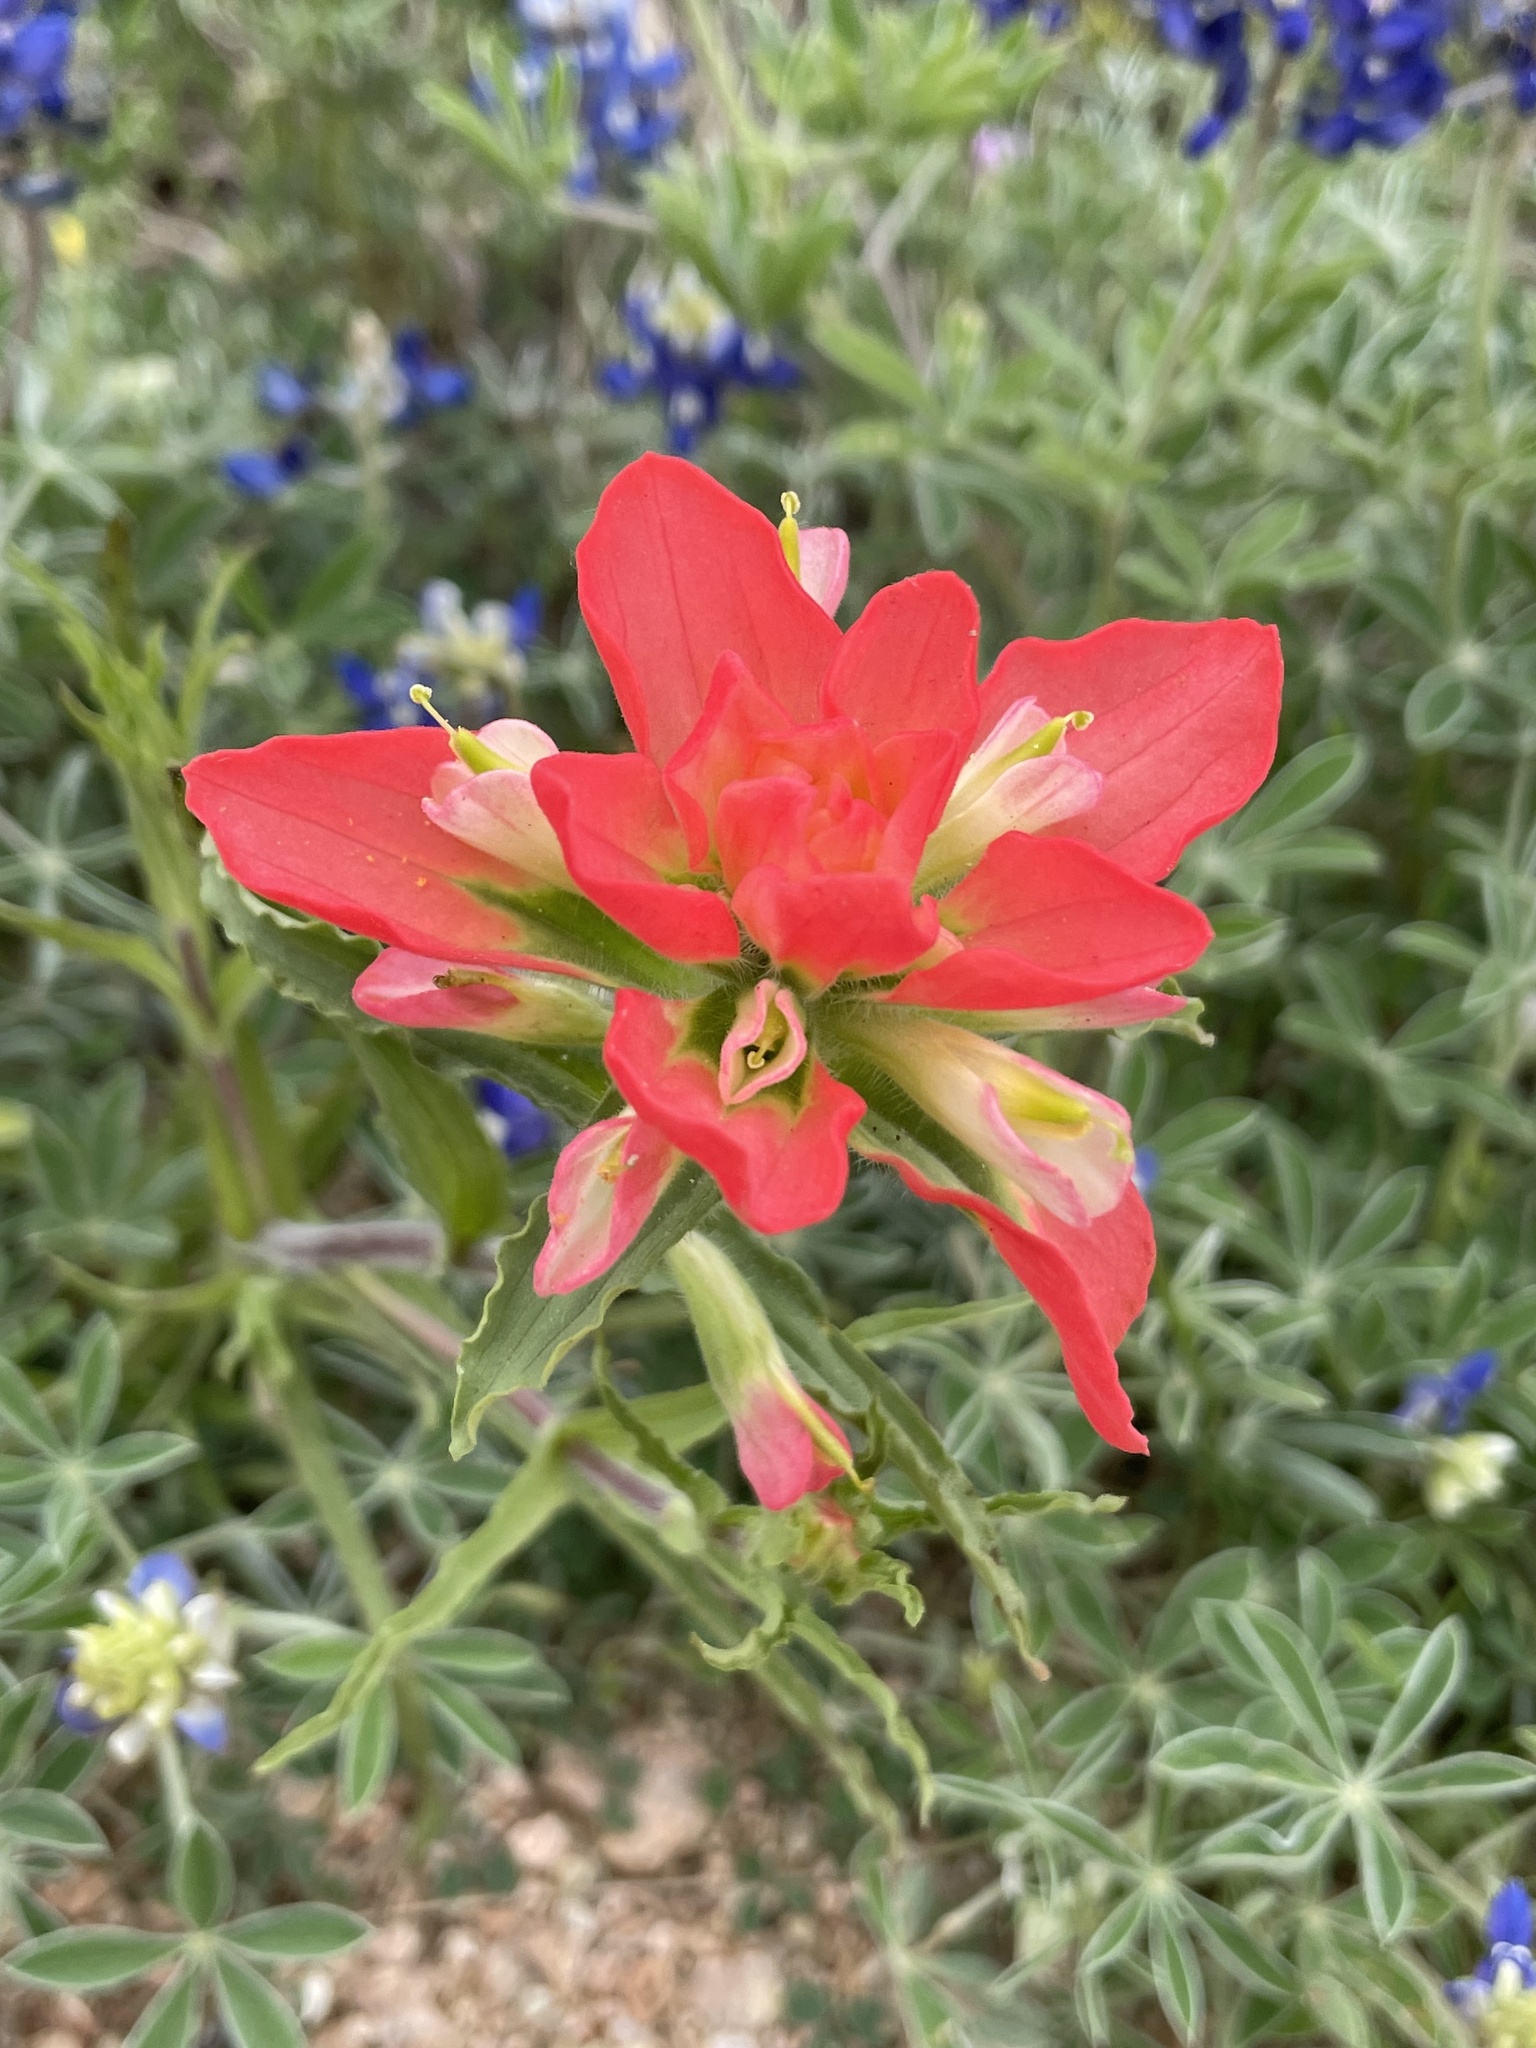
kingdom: Plantae
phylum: Tracheophyta
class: Magnoliopsida
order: Lamiales
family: Orobanchaceae
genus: Castilleja
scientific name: Castilleja indivisa
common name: Texas paintbrush
